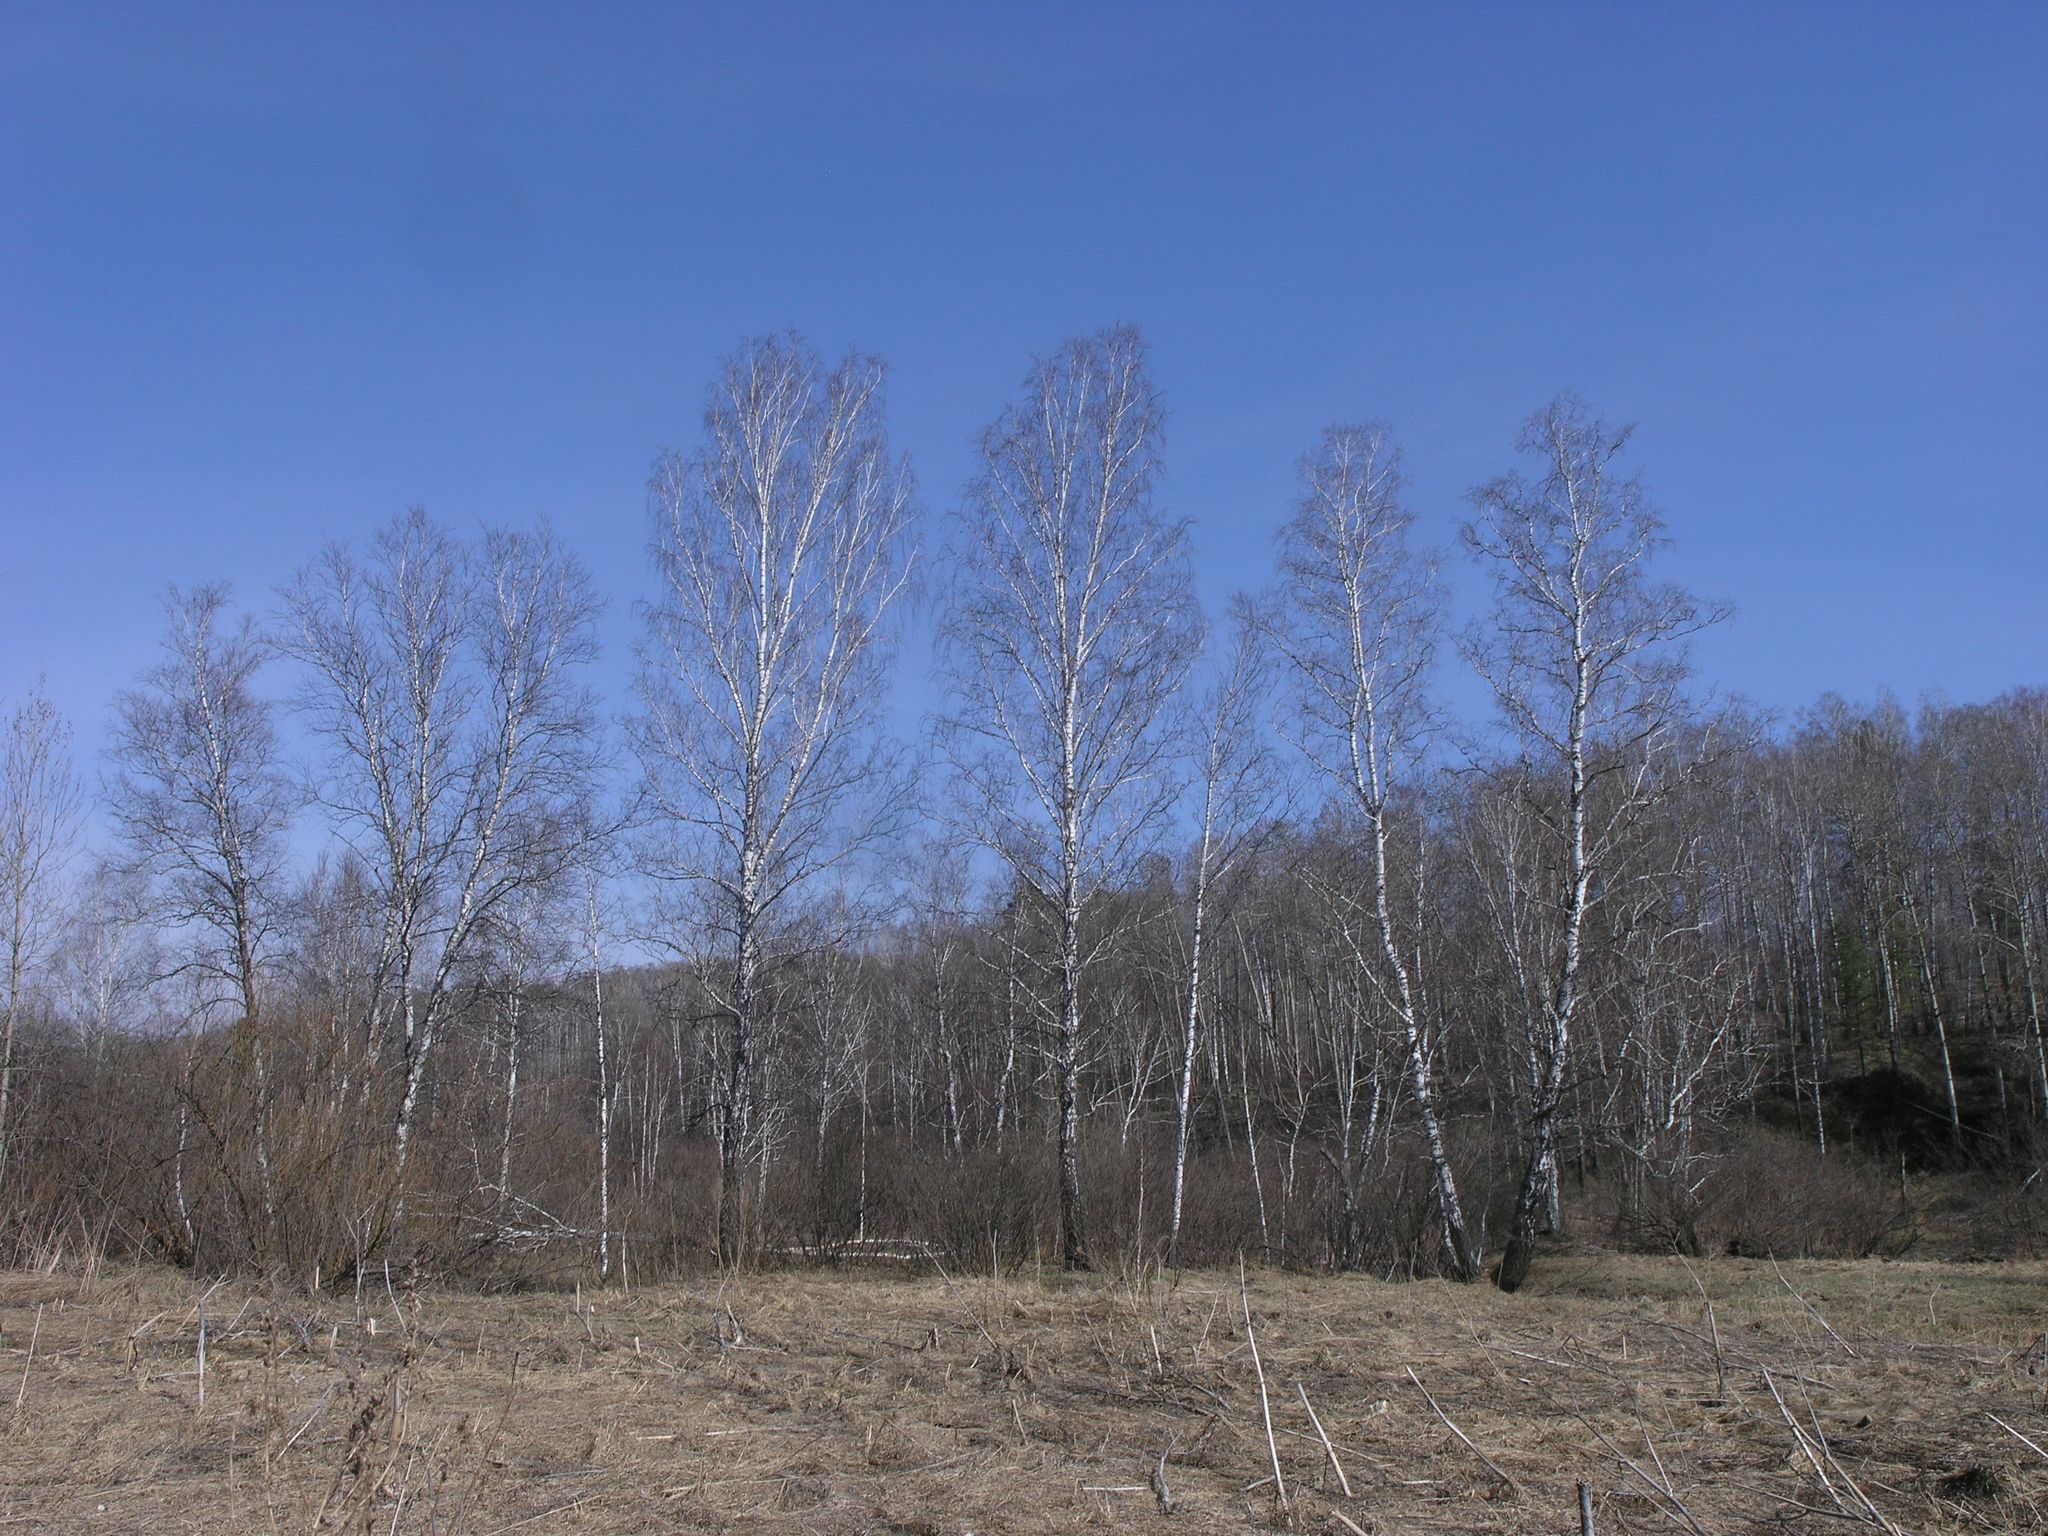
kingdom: Plantae
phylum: Tracheophyta
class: Magnoliopsida
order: Fagales
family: Betulaceae
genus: Betula
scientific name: Betula pendula
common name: Silver birch
